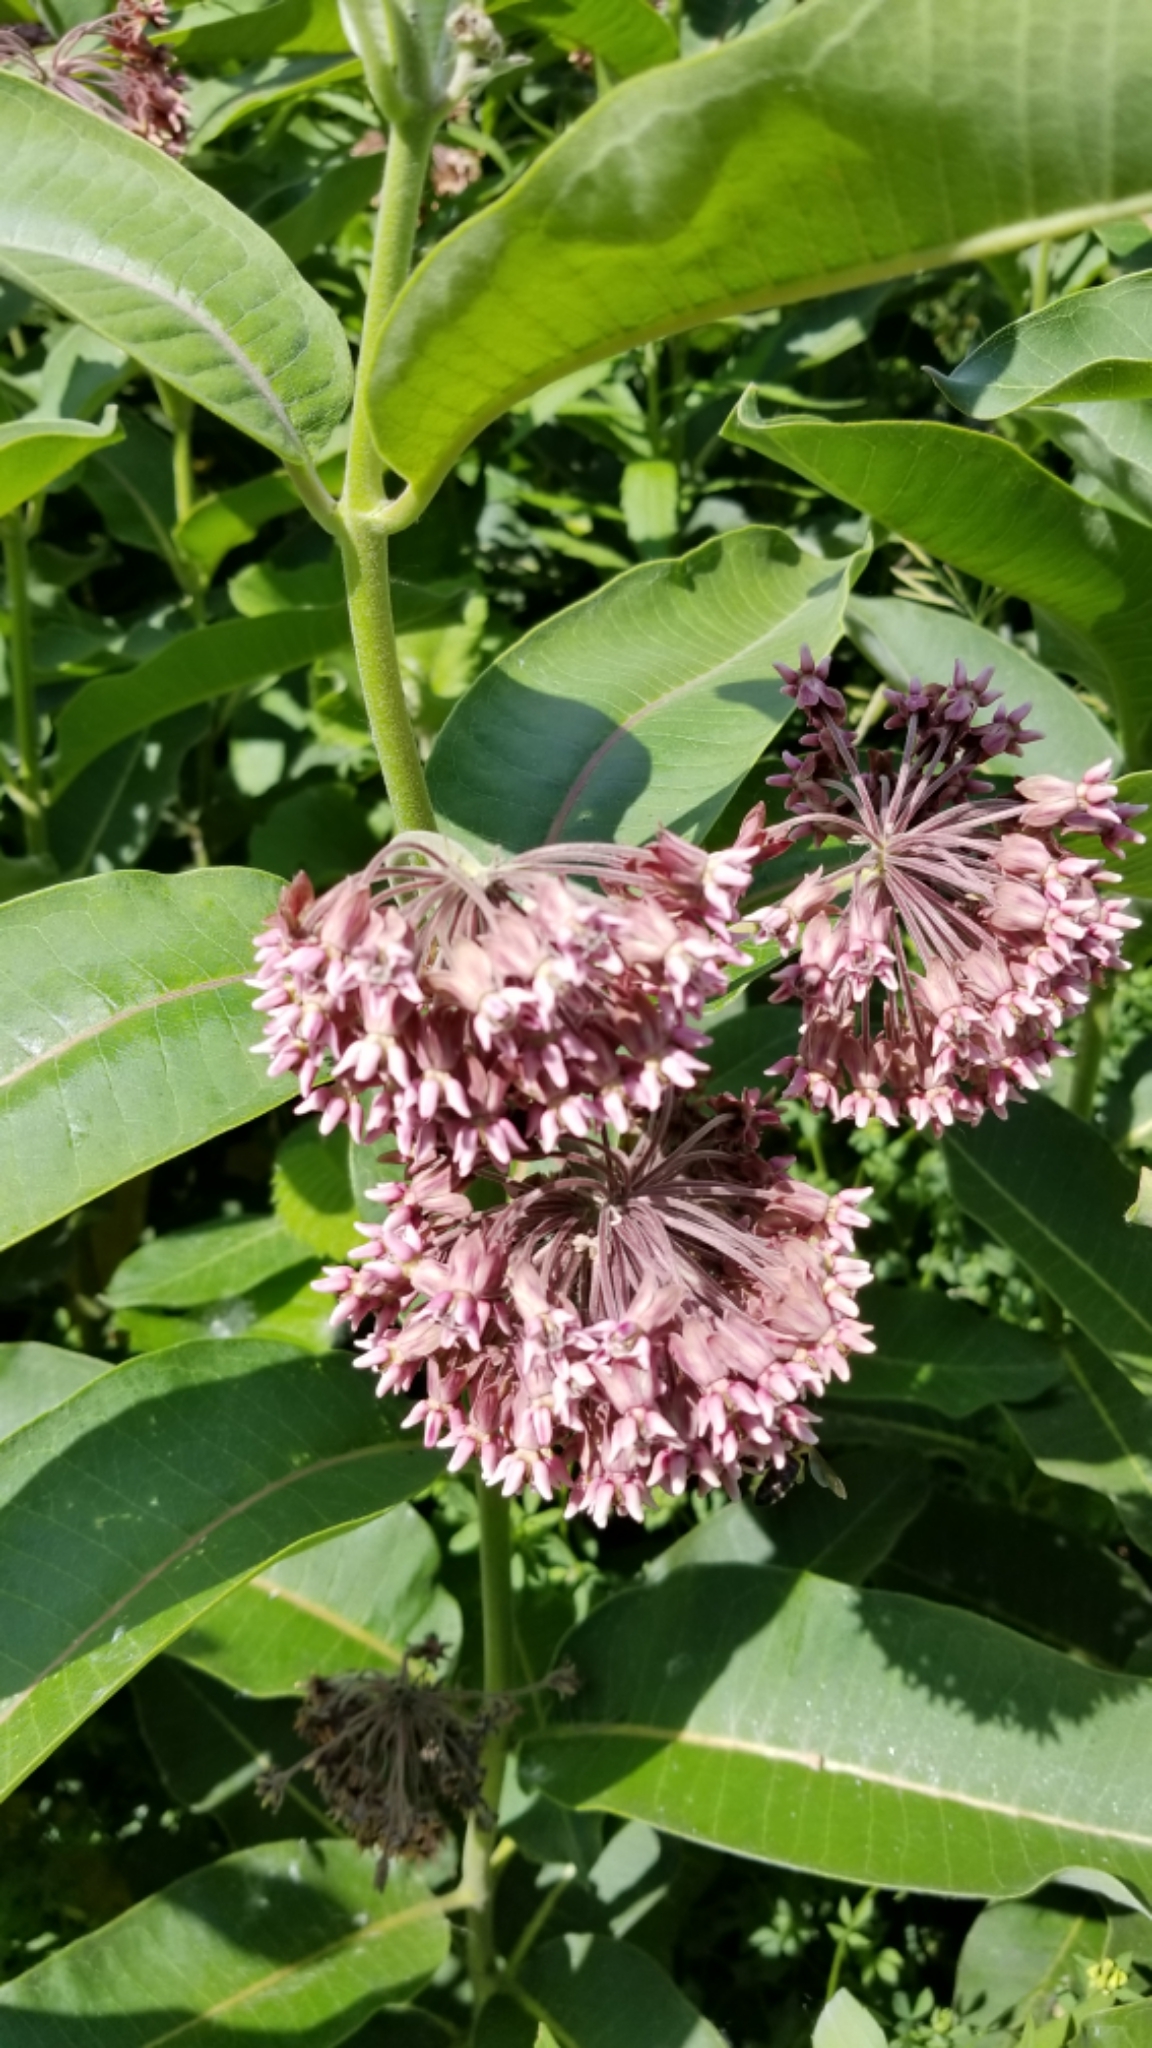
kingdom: Plantae
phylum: Tracheophyta
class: Magnoliopsida
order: Gentianales
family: Apocynaceae
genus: Asclepias
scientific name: Asclepias syriaca
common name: Common milkweed
